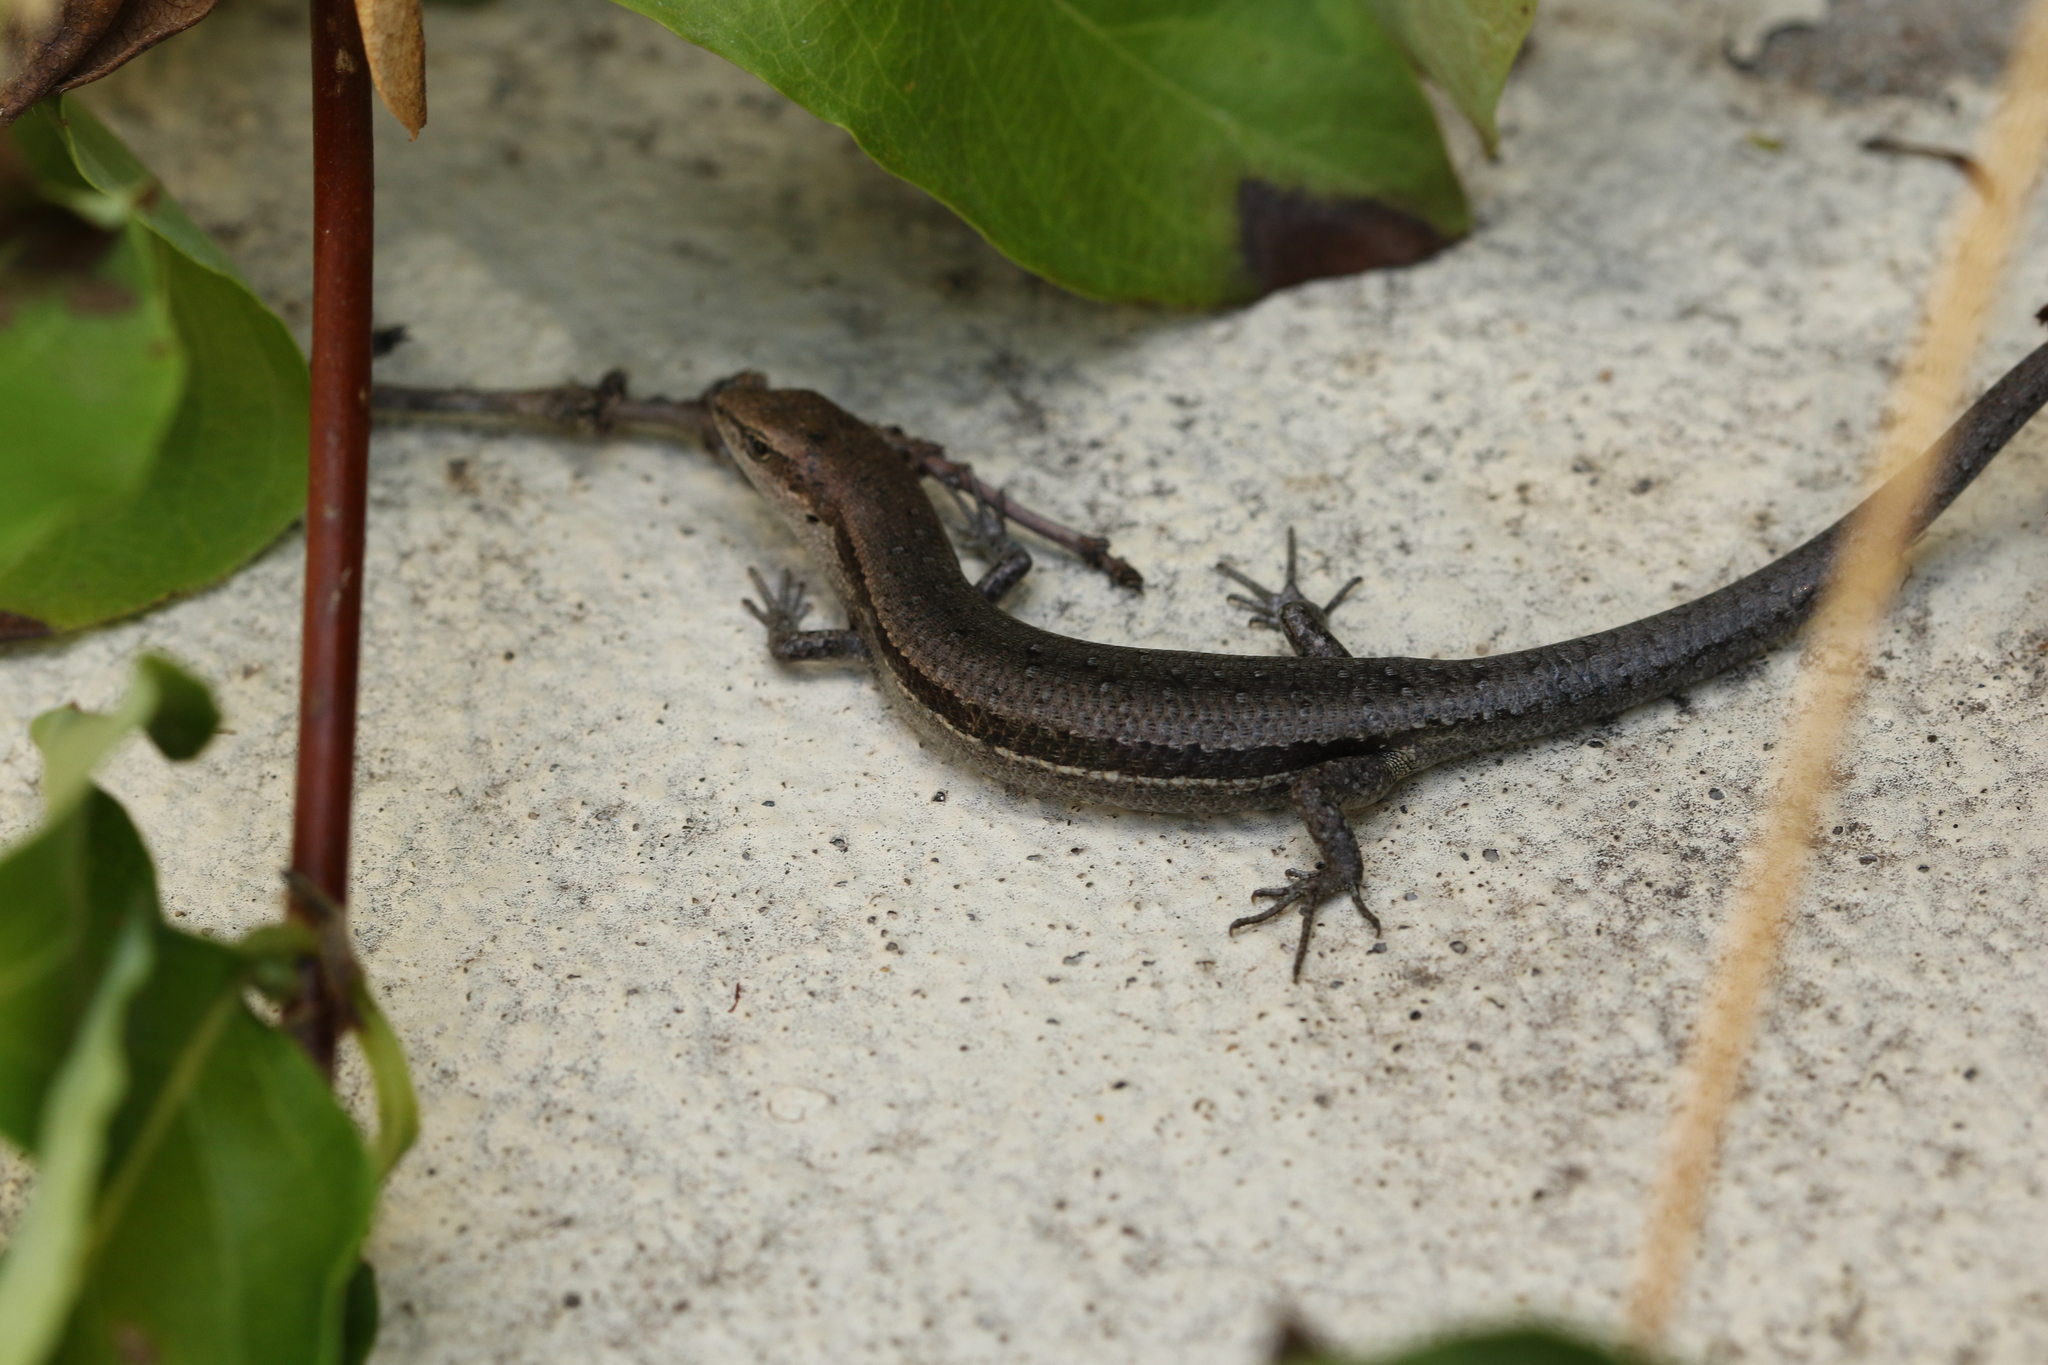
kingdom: Animalia
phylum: Chordata
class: Squamata
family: Scincidae
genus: Lampropholis
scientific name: Lampropholis guichenoti
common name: Garden skink
